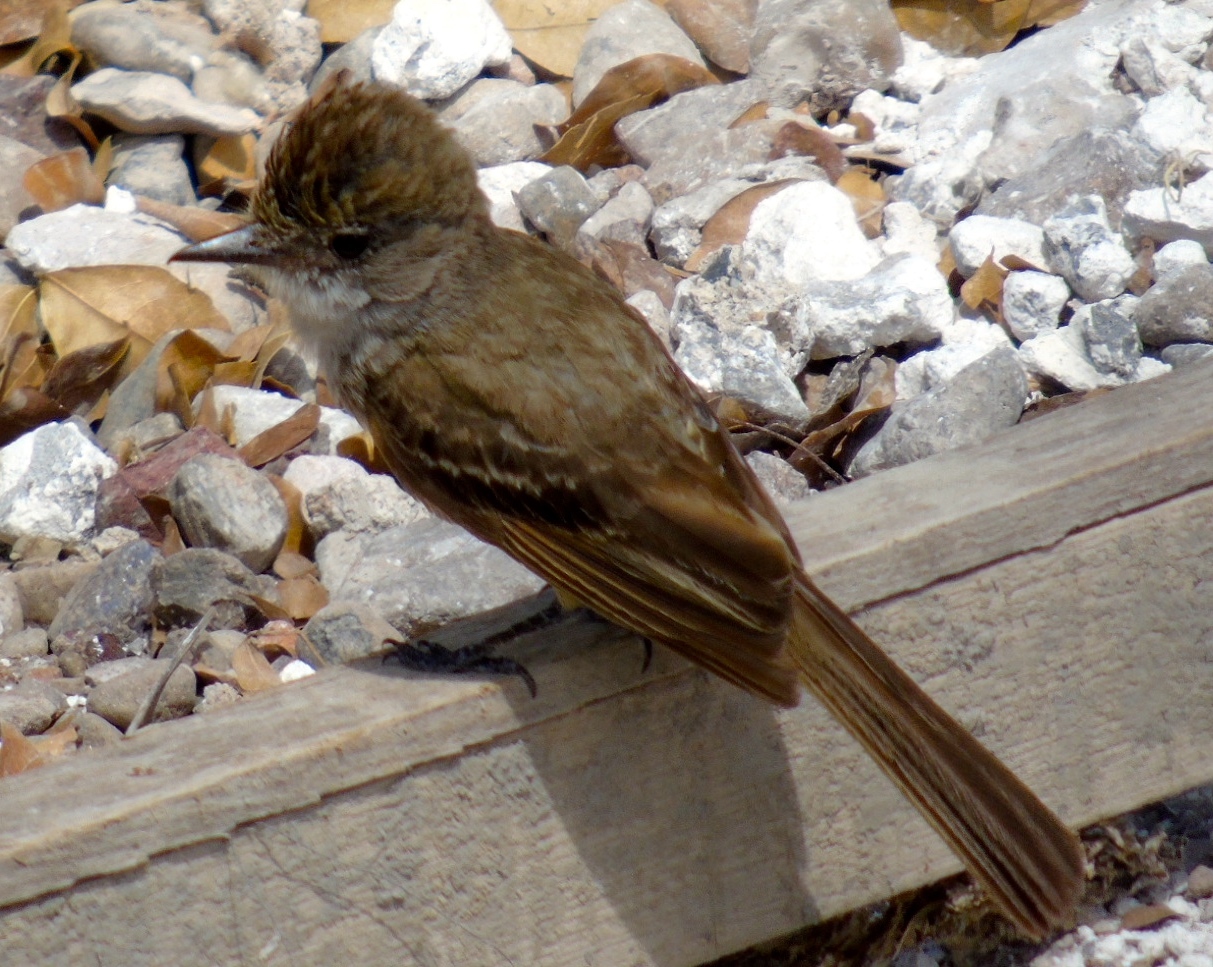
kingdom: Animalia
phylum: Chordata
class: Aves
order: Passeriformes
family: Tyrannidae
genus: Myiarchus
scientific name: Myiarchus nuttingi
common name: Nutting's flycatcher
